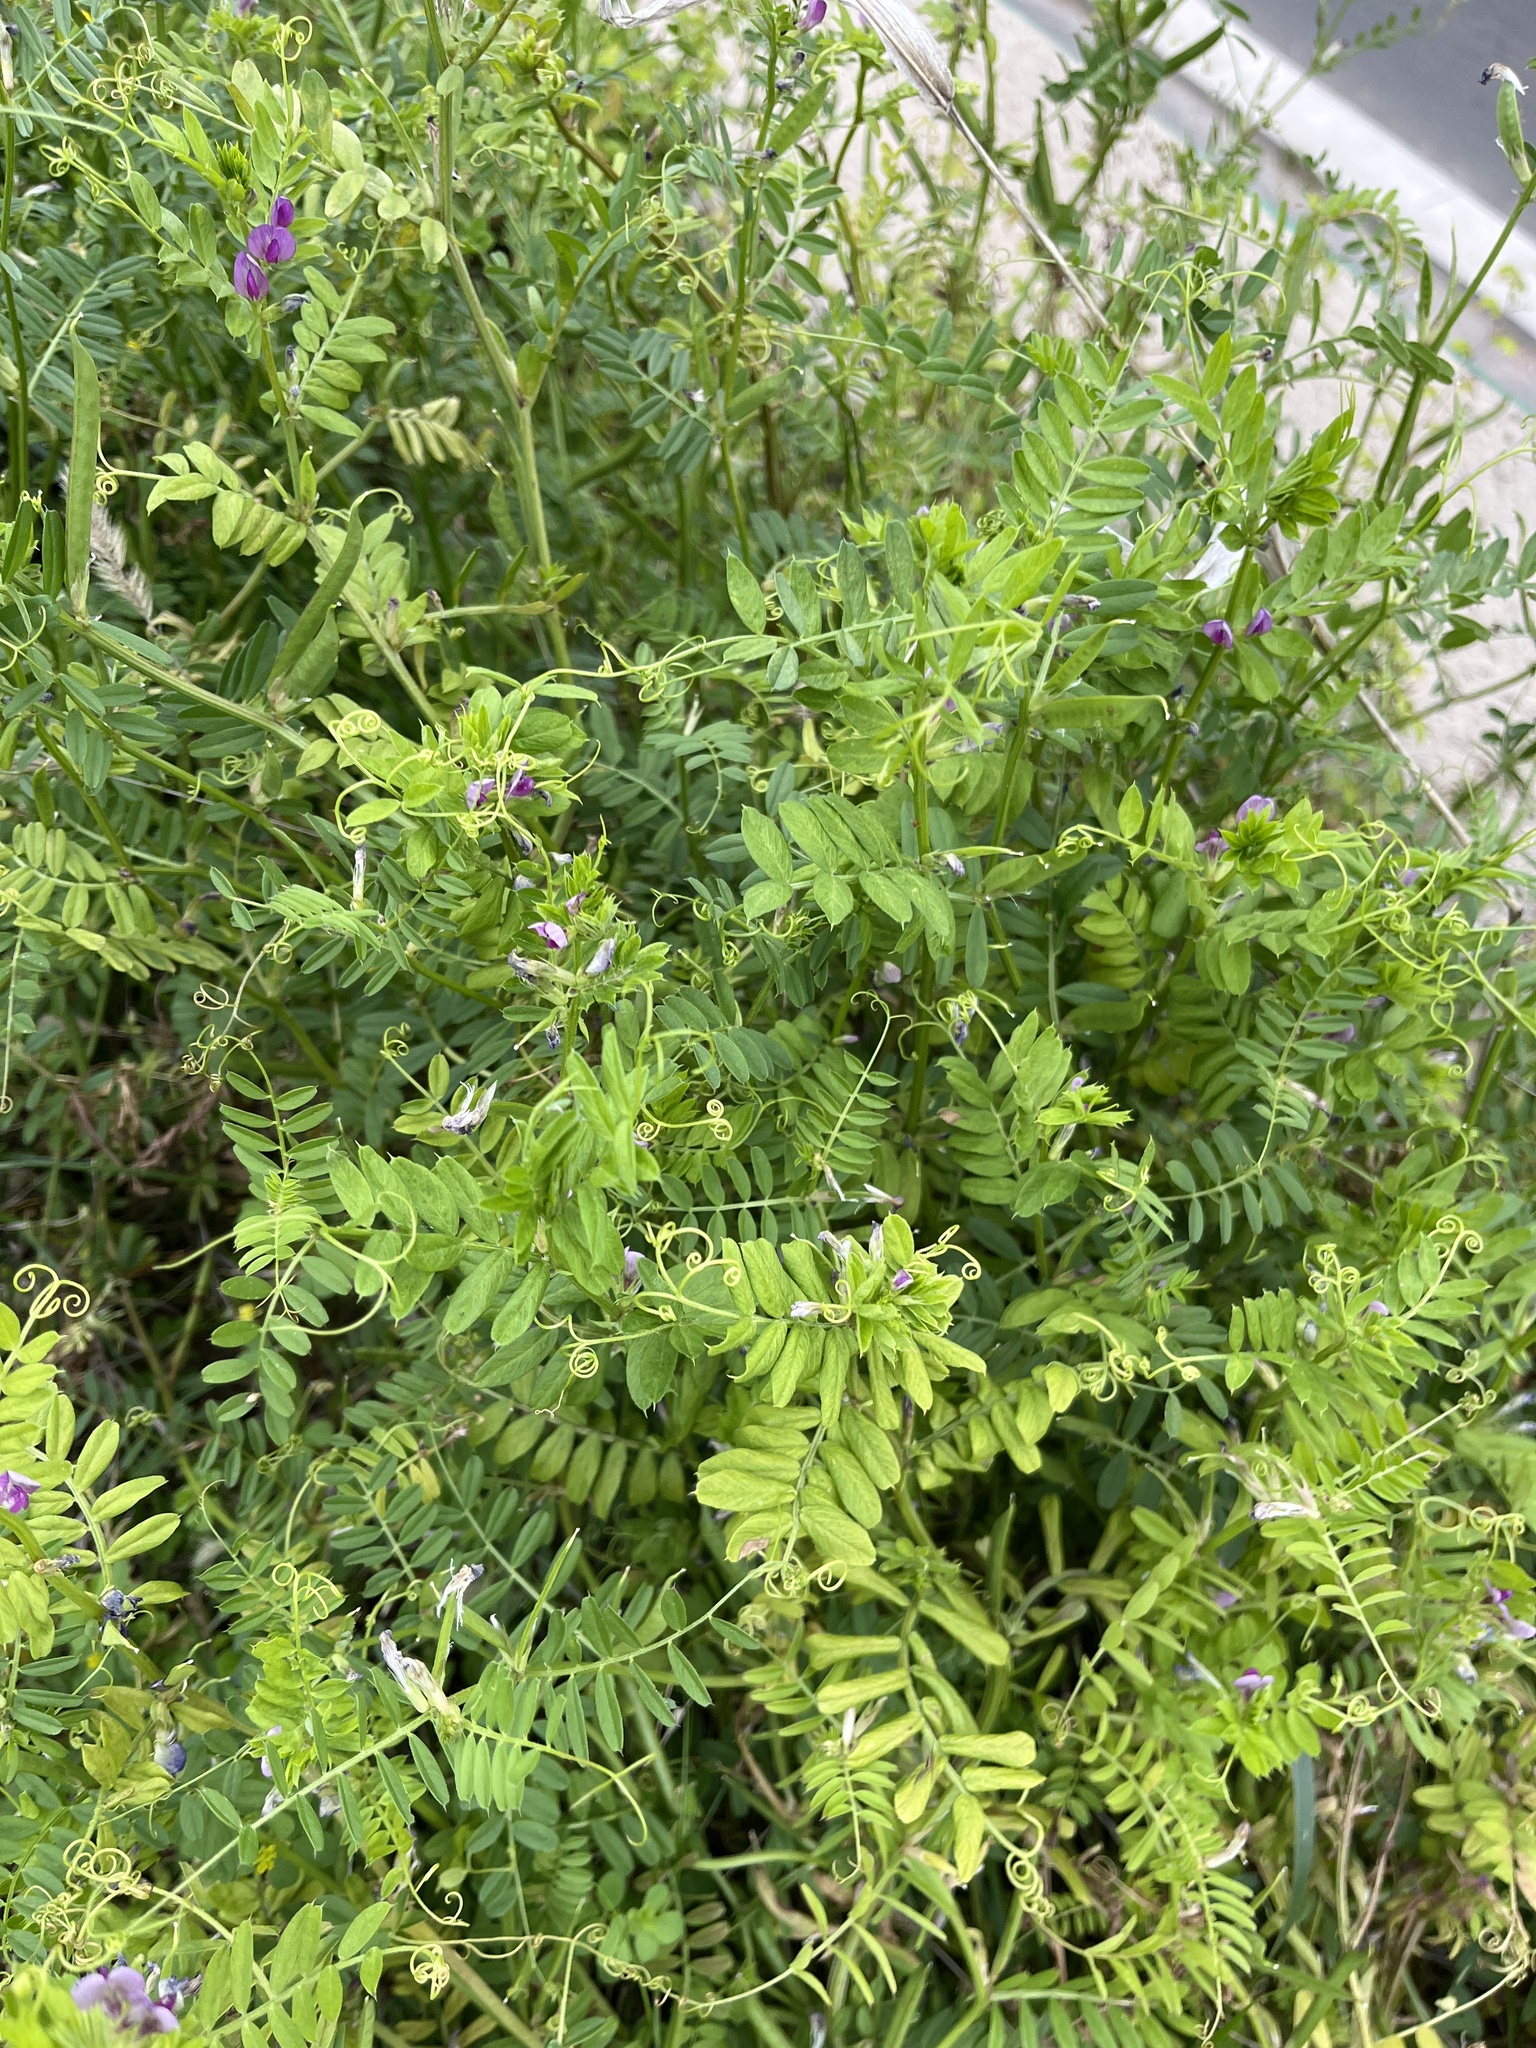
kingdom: Plantae
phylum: Tracheophyta
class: Magnoliopsida
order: Fabales
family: Fabaceae
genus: Vicia
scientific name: Vicia sativa
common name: Garden vetch
